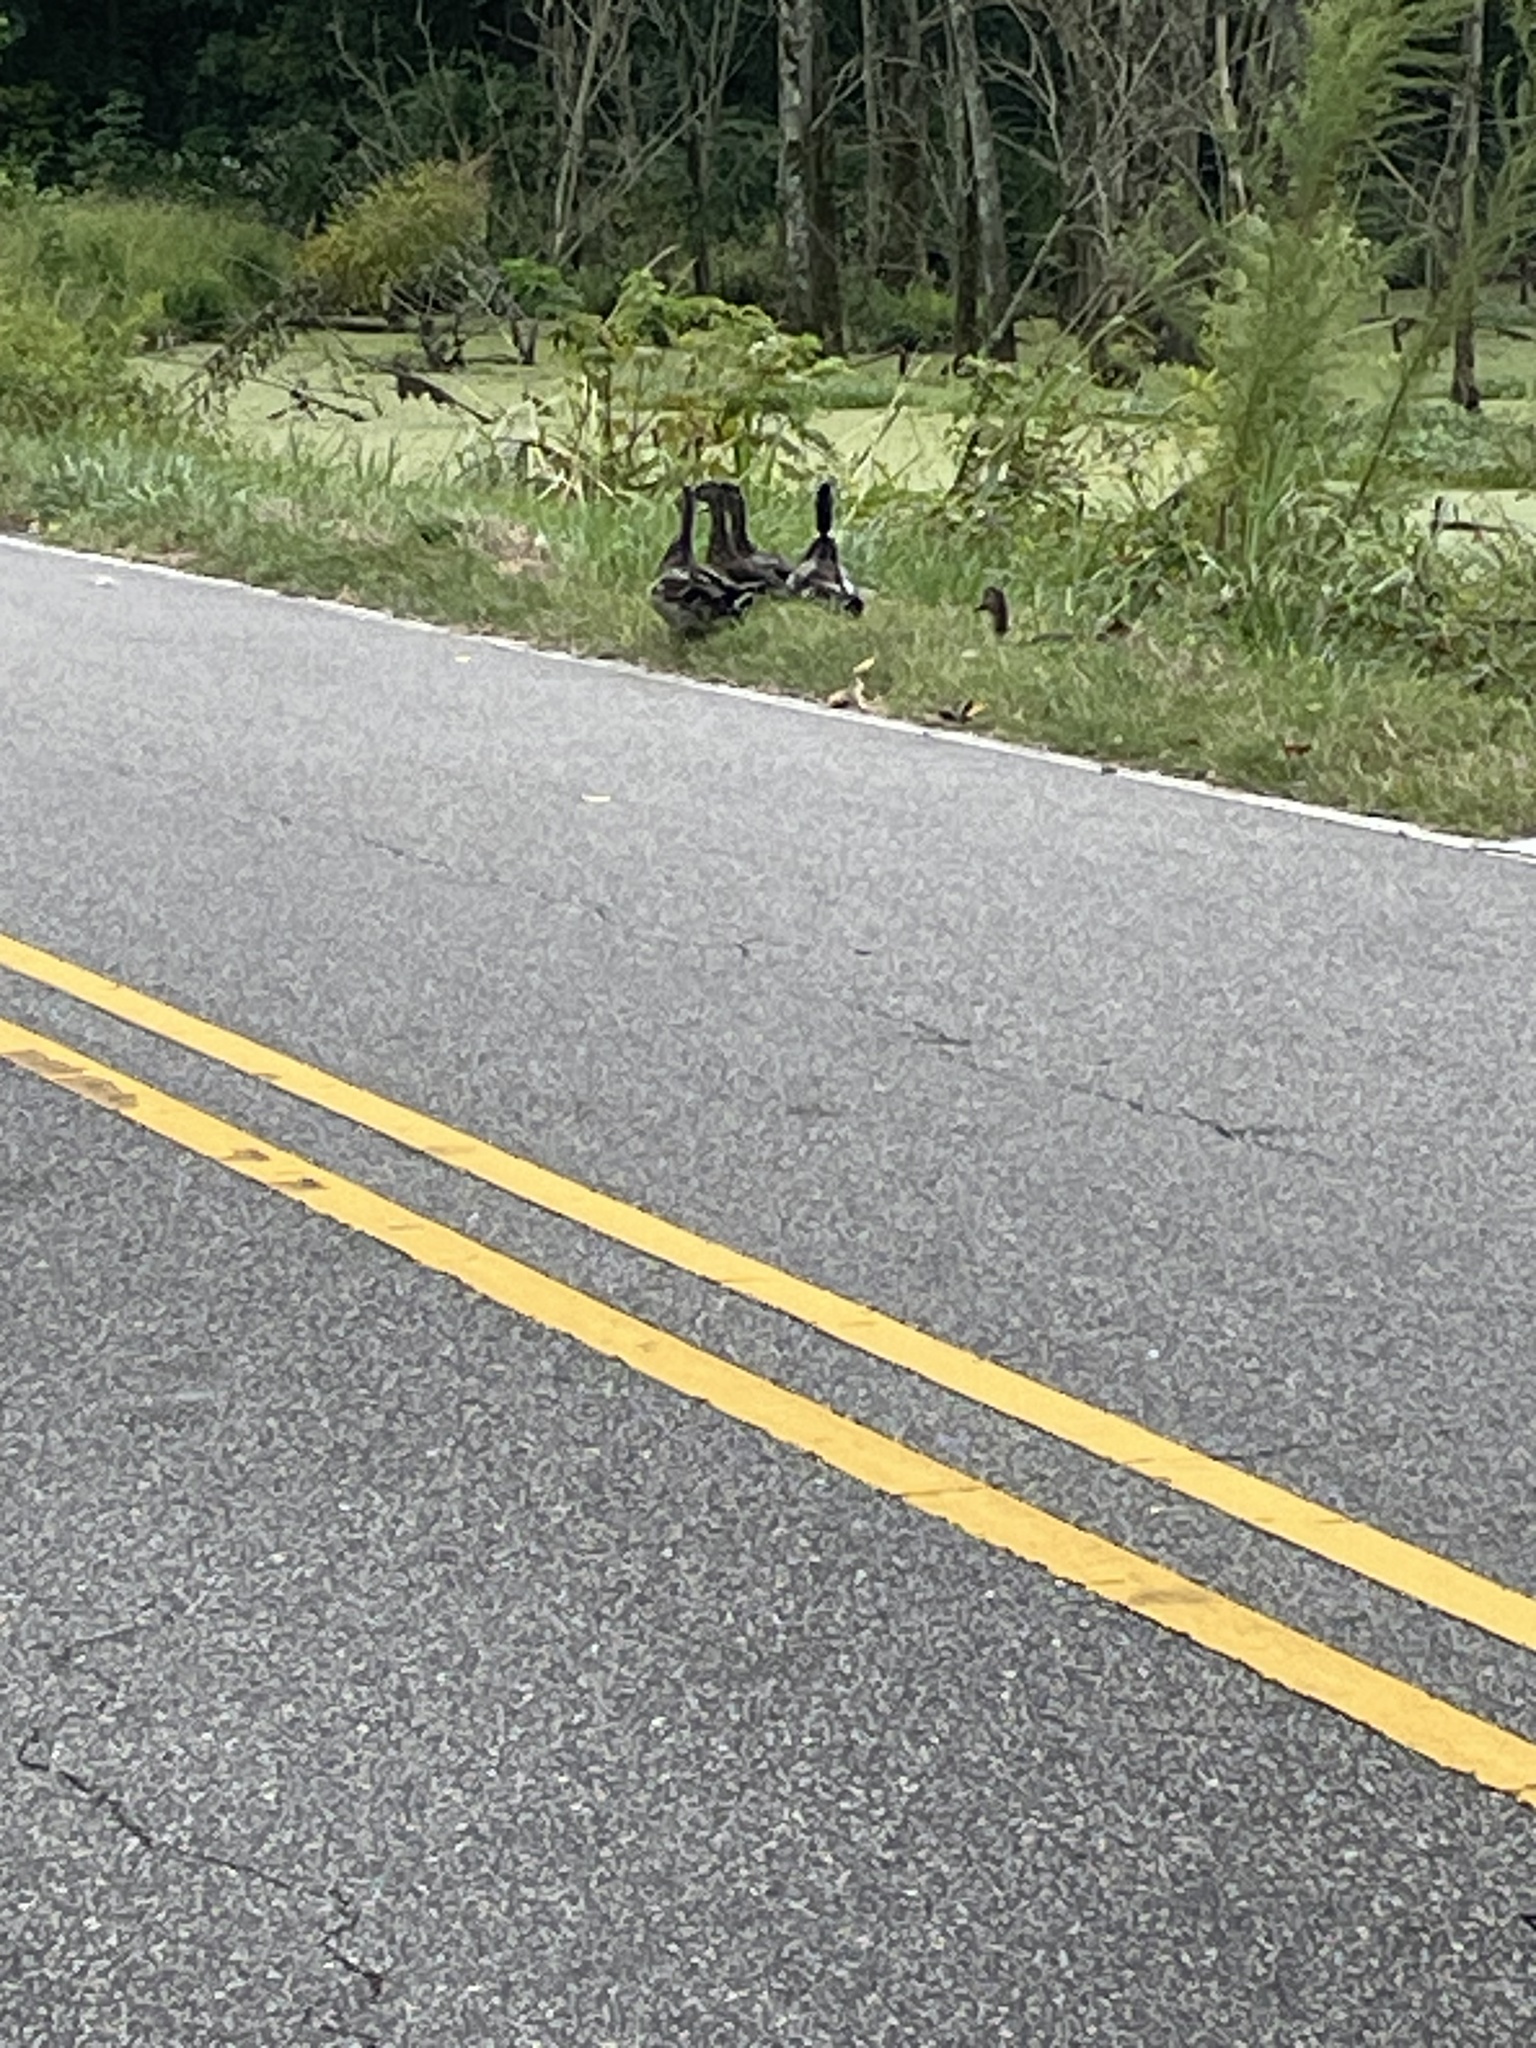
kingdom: Animalia
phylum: Chordata
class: Aves
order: Anseriformes
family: Anatidae
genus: Anas
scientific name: Anas platyrhynchos
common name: Mallard
